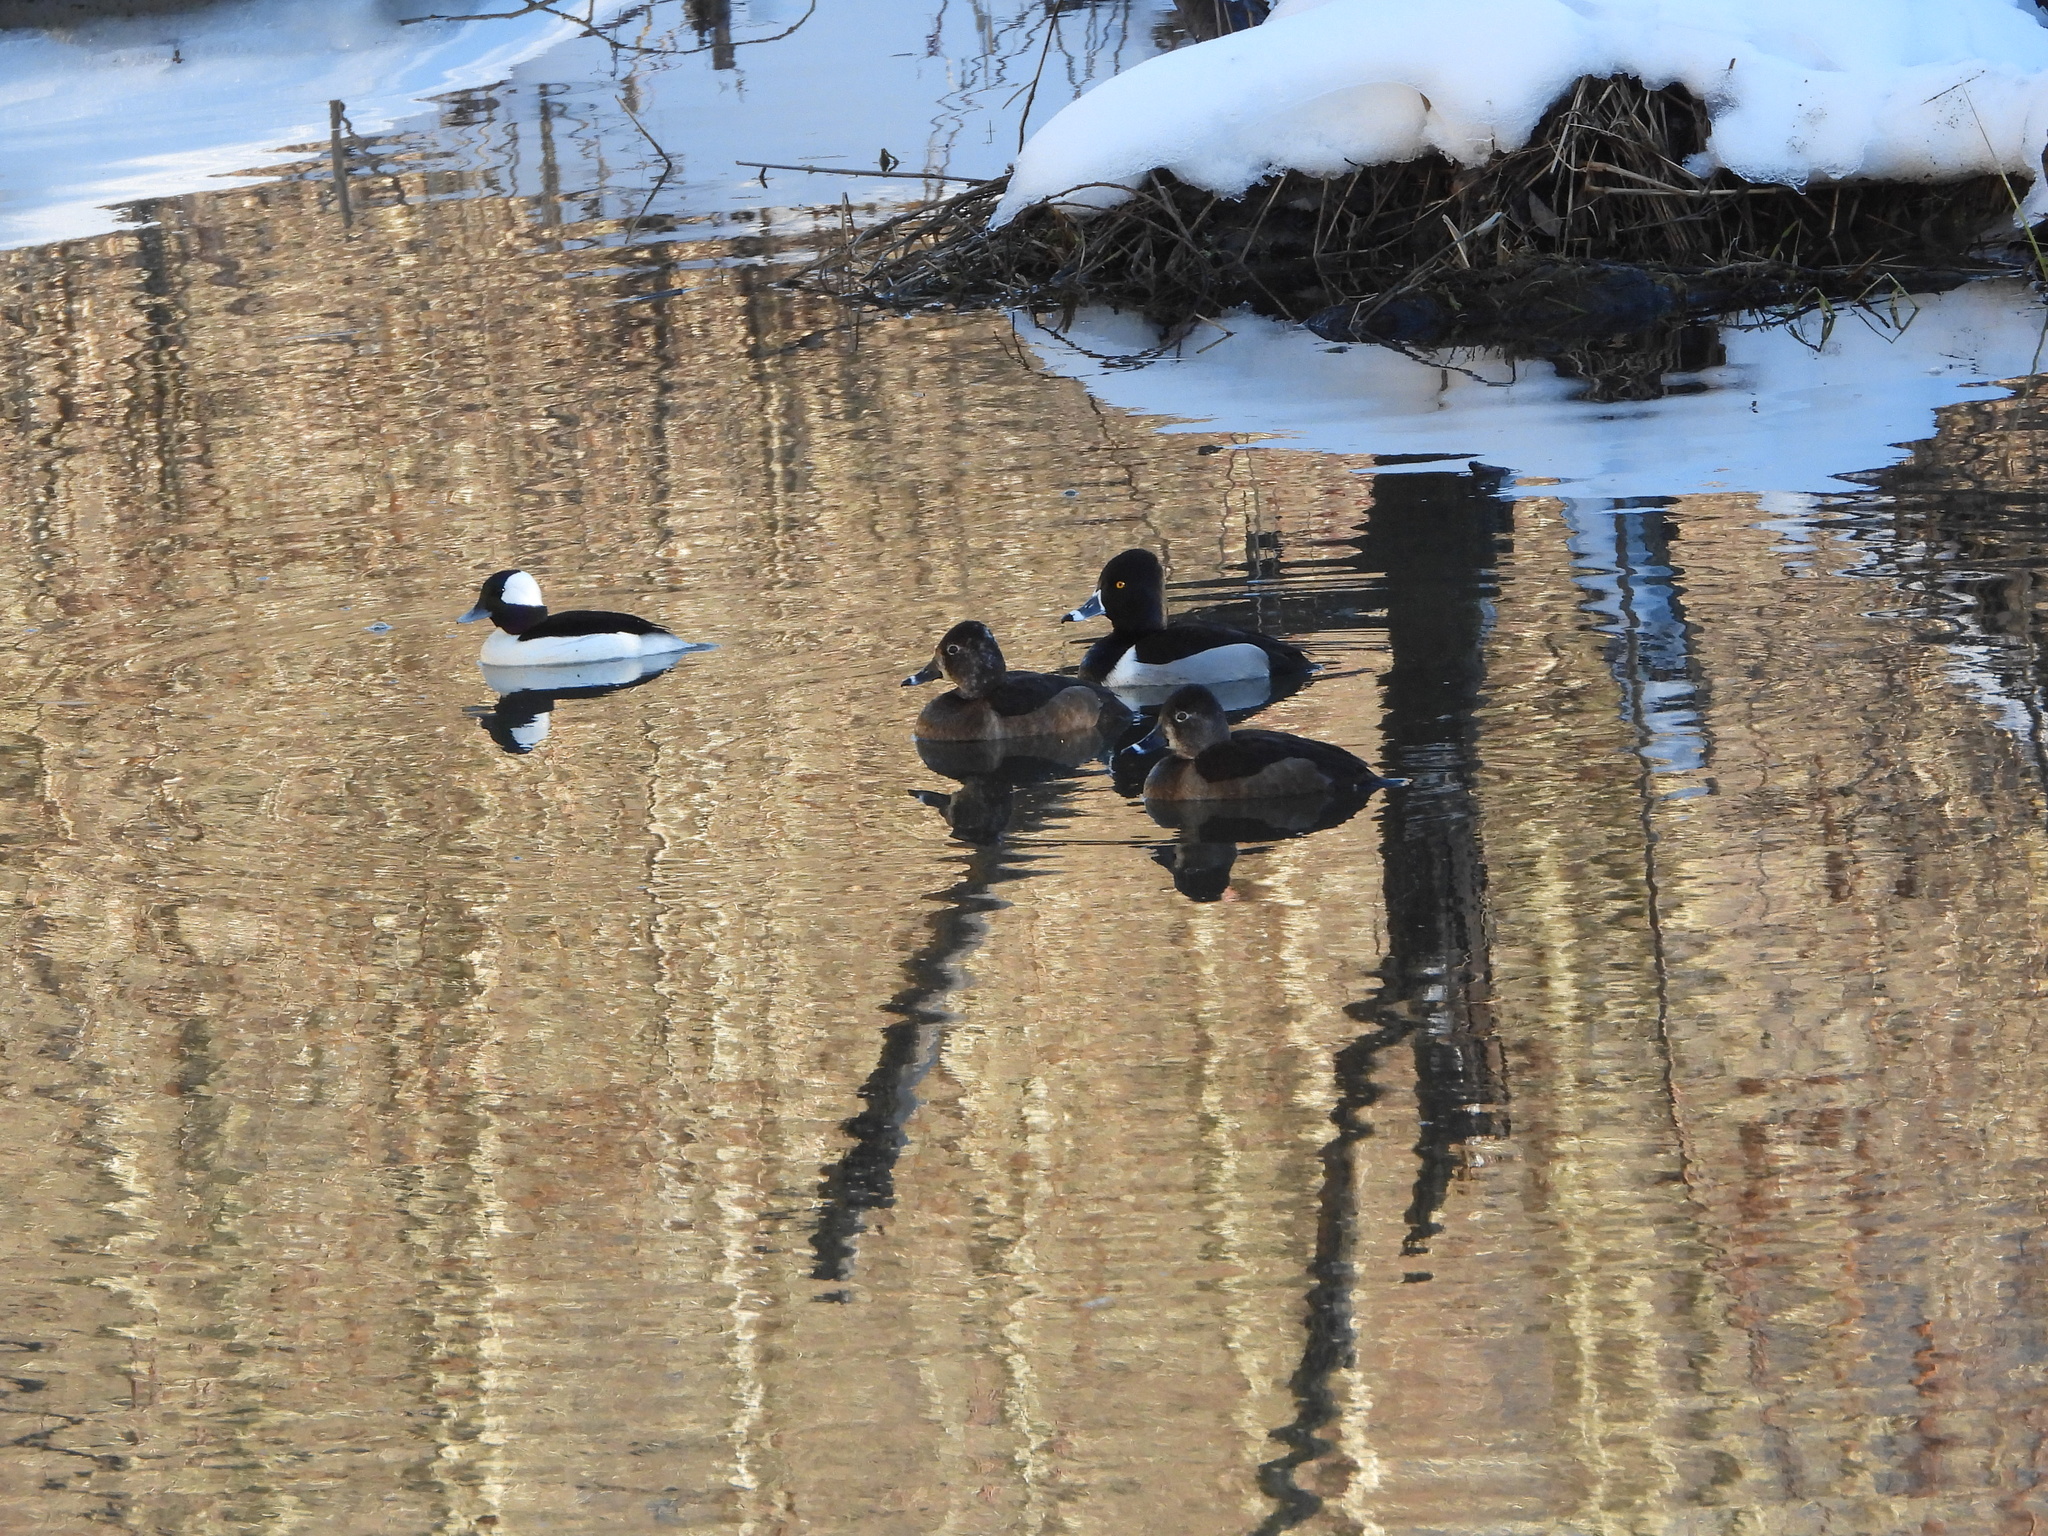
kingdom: Animalia
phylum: Chordata
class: Aves
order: Anseriformes
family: Anatidae
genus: Bucephala
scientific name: Bucephala albeola
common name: Bufflehead
